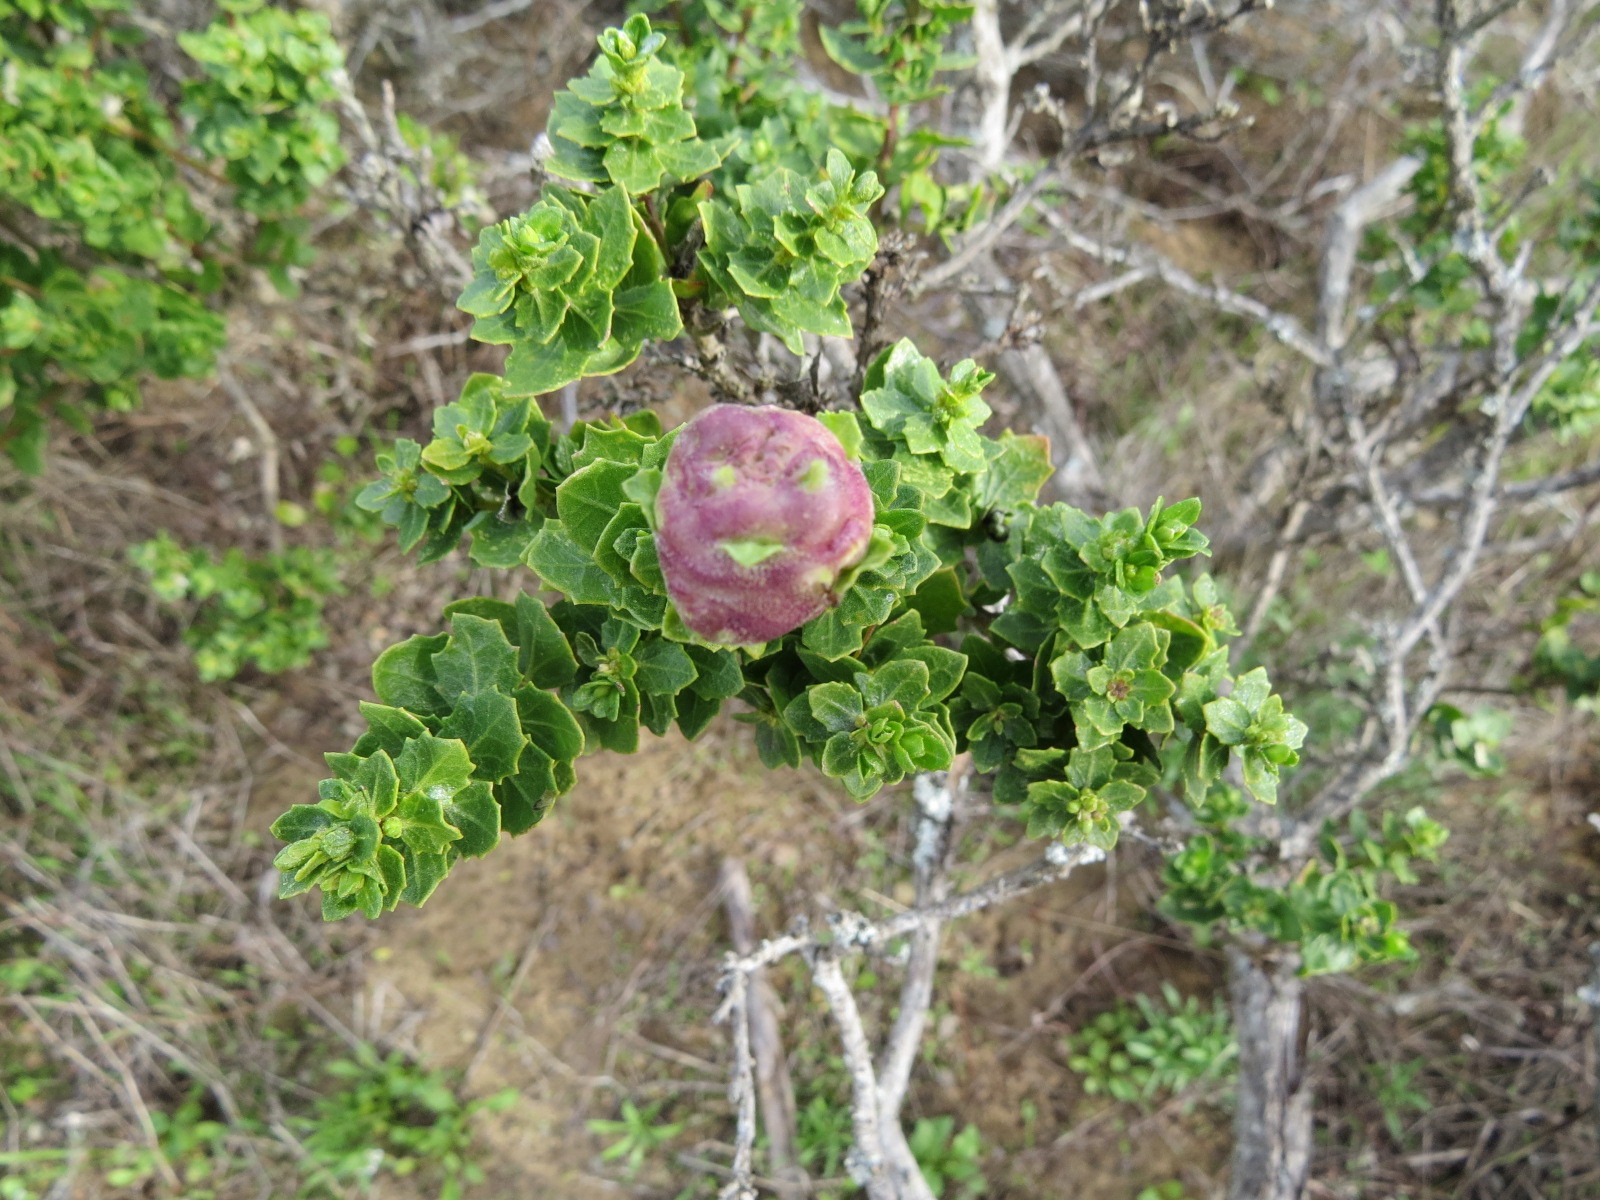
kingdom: Animalia
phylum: Arthropoda
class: Insecta
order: Diptera
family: Cecidomyiidae
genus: Rhopalomyia
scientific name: Rhopalomyia californica
